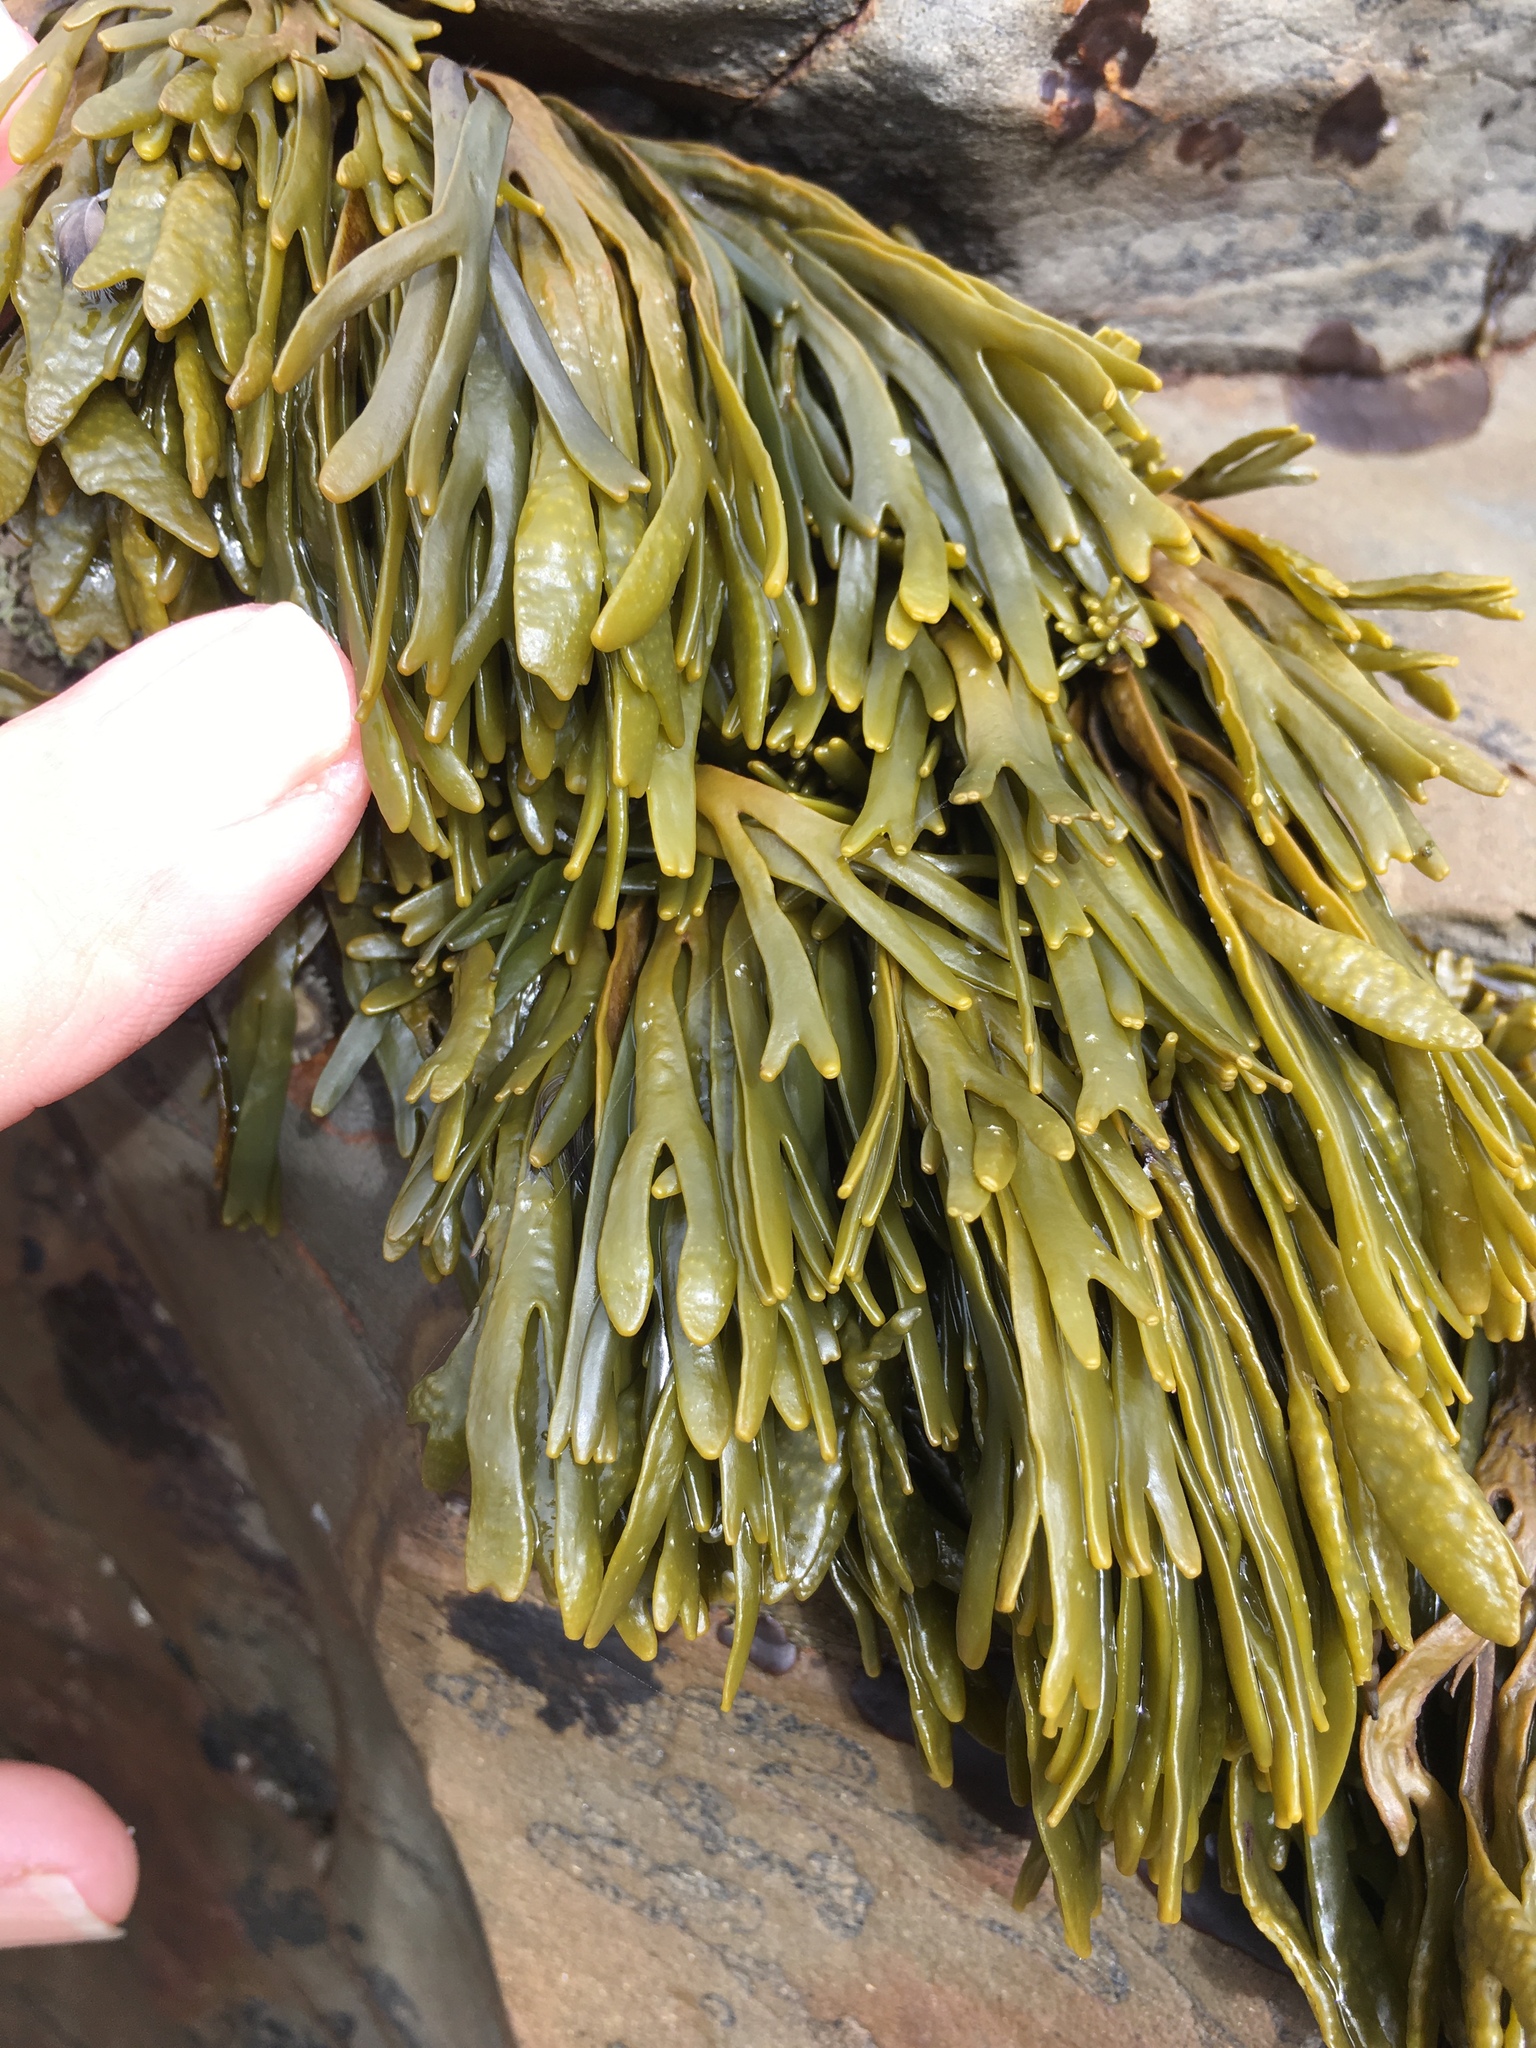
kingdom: Chromista
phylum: Ochrophyta
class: Phaeophyceae
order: Fucales
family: Fucaceae
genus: Silvetia
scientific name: Silvetia
